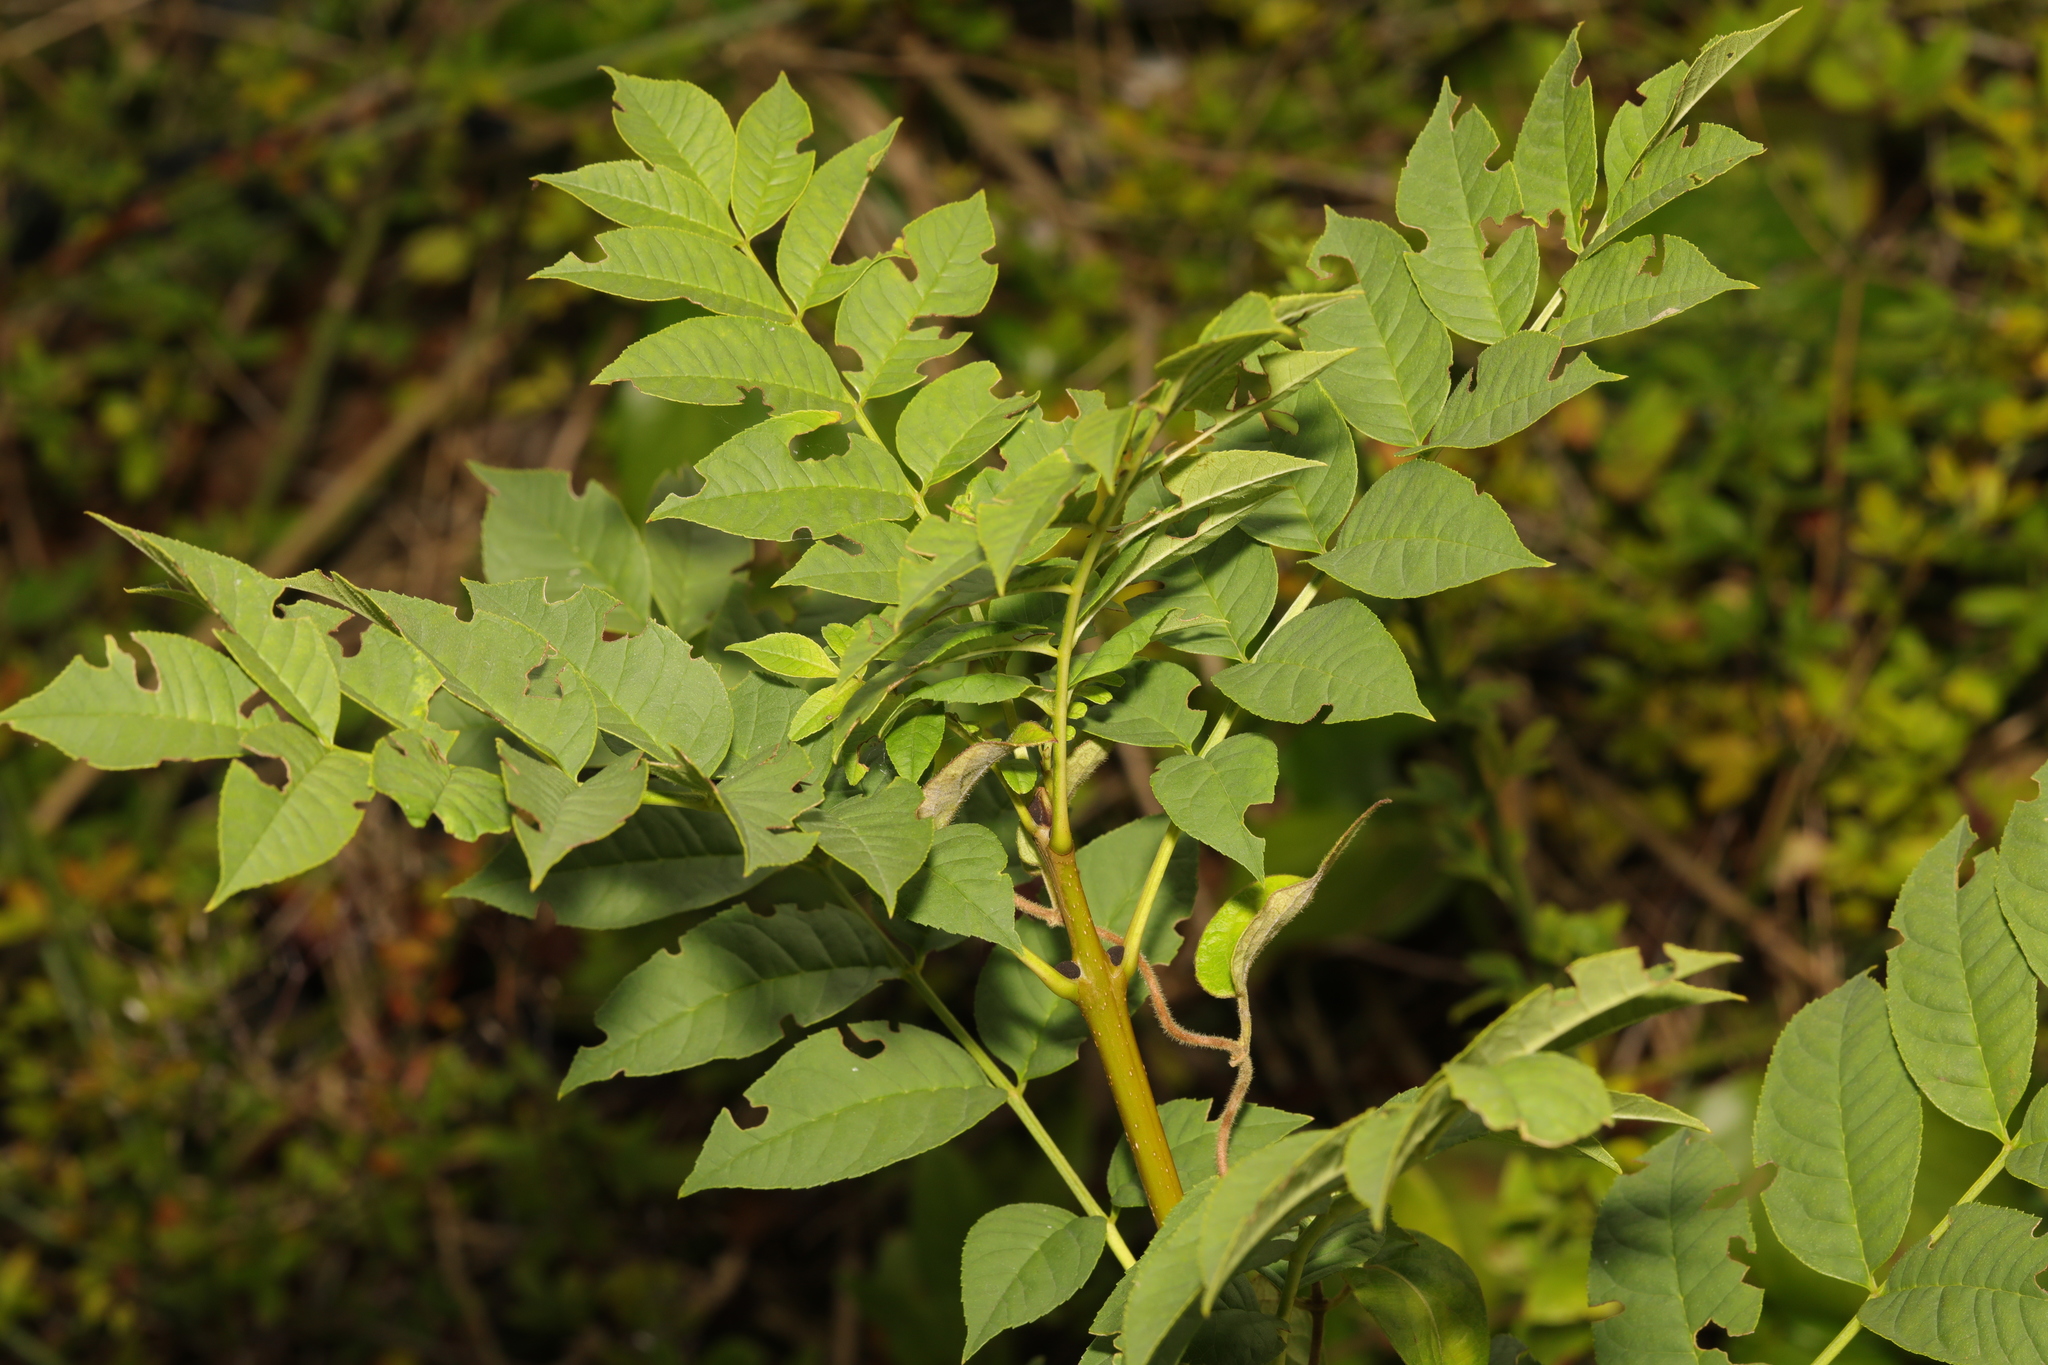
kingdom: Plantae
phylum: Tracheophyta
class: Magnoliopsida
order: Lamiales
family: Oleaceae
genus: Fraxinus
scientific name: Fraxinus excelsior
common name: European ash
